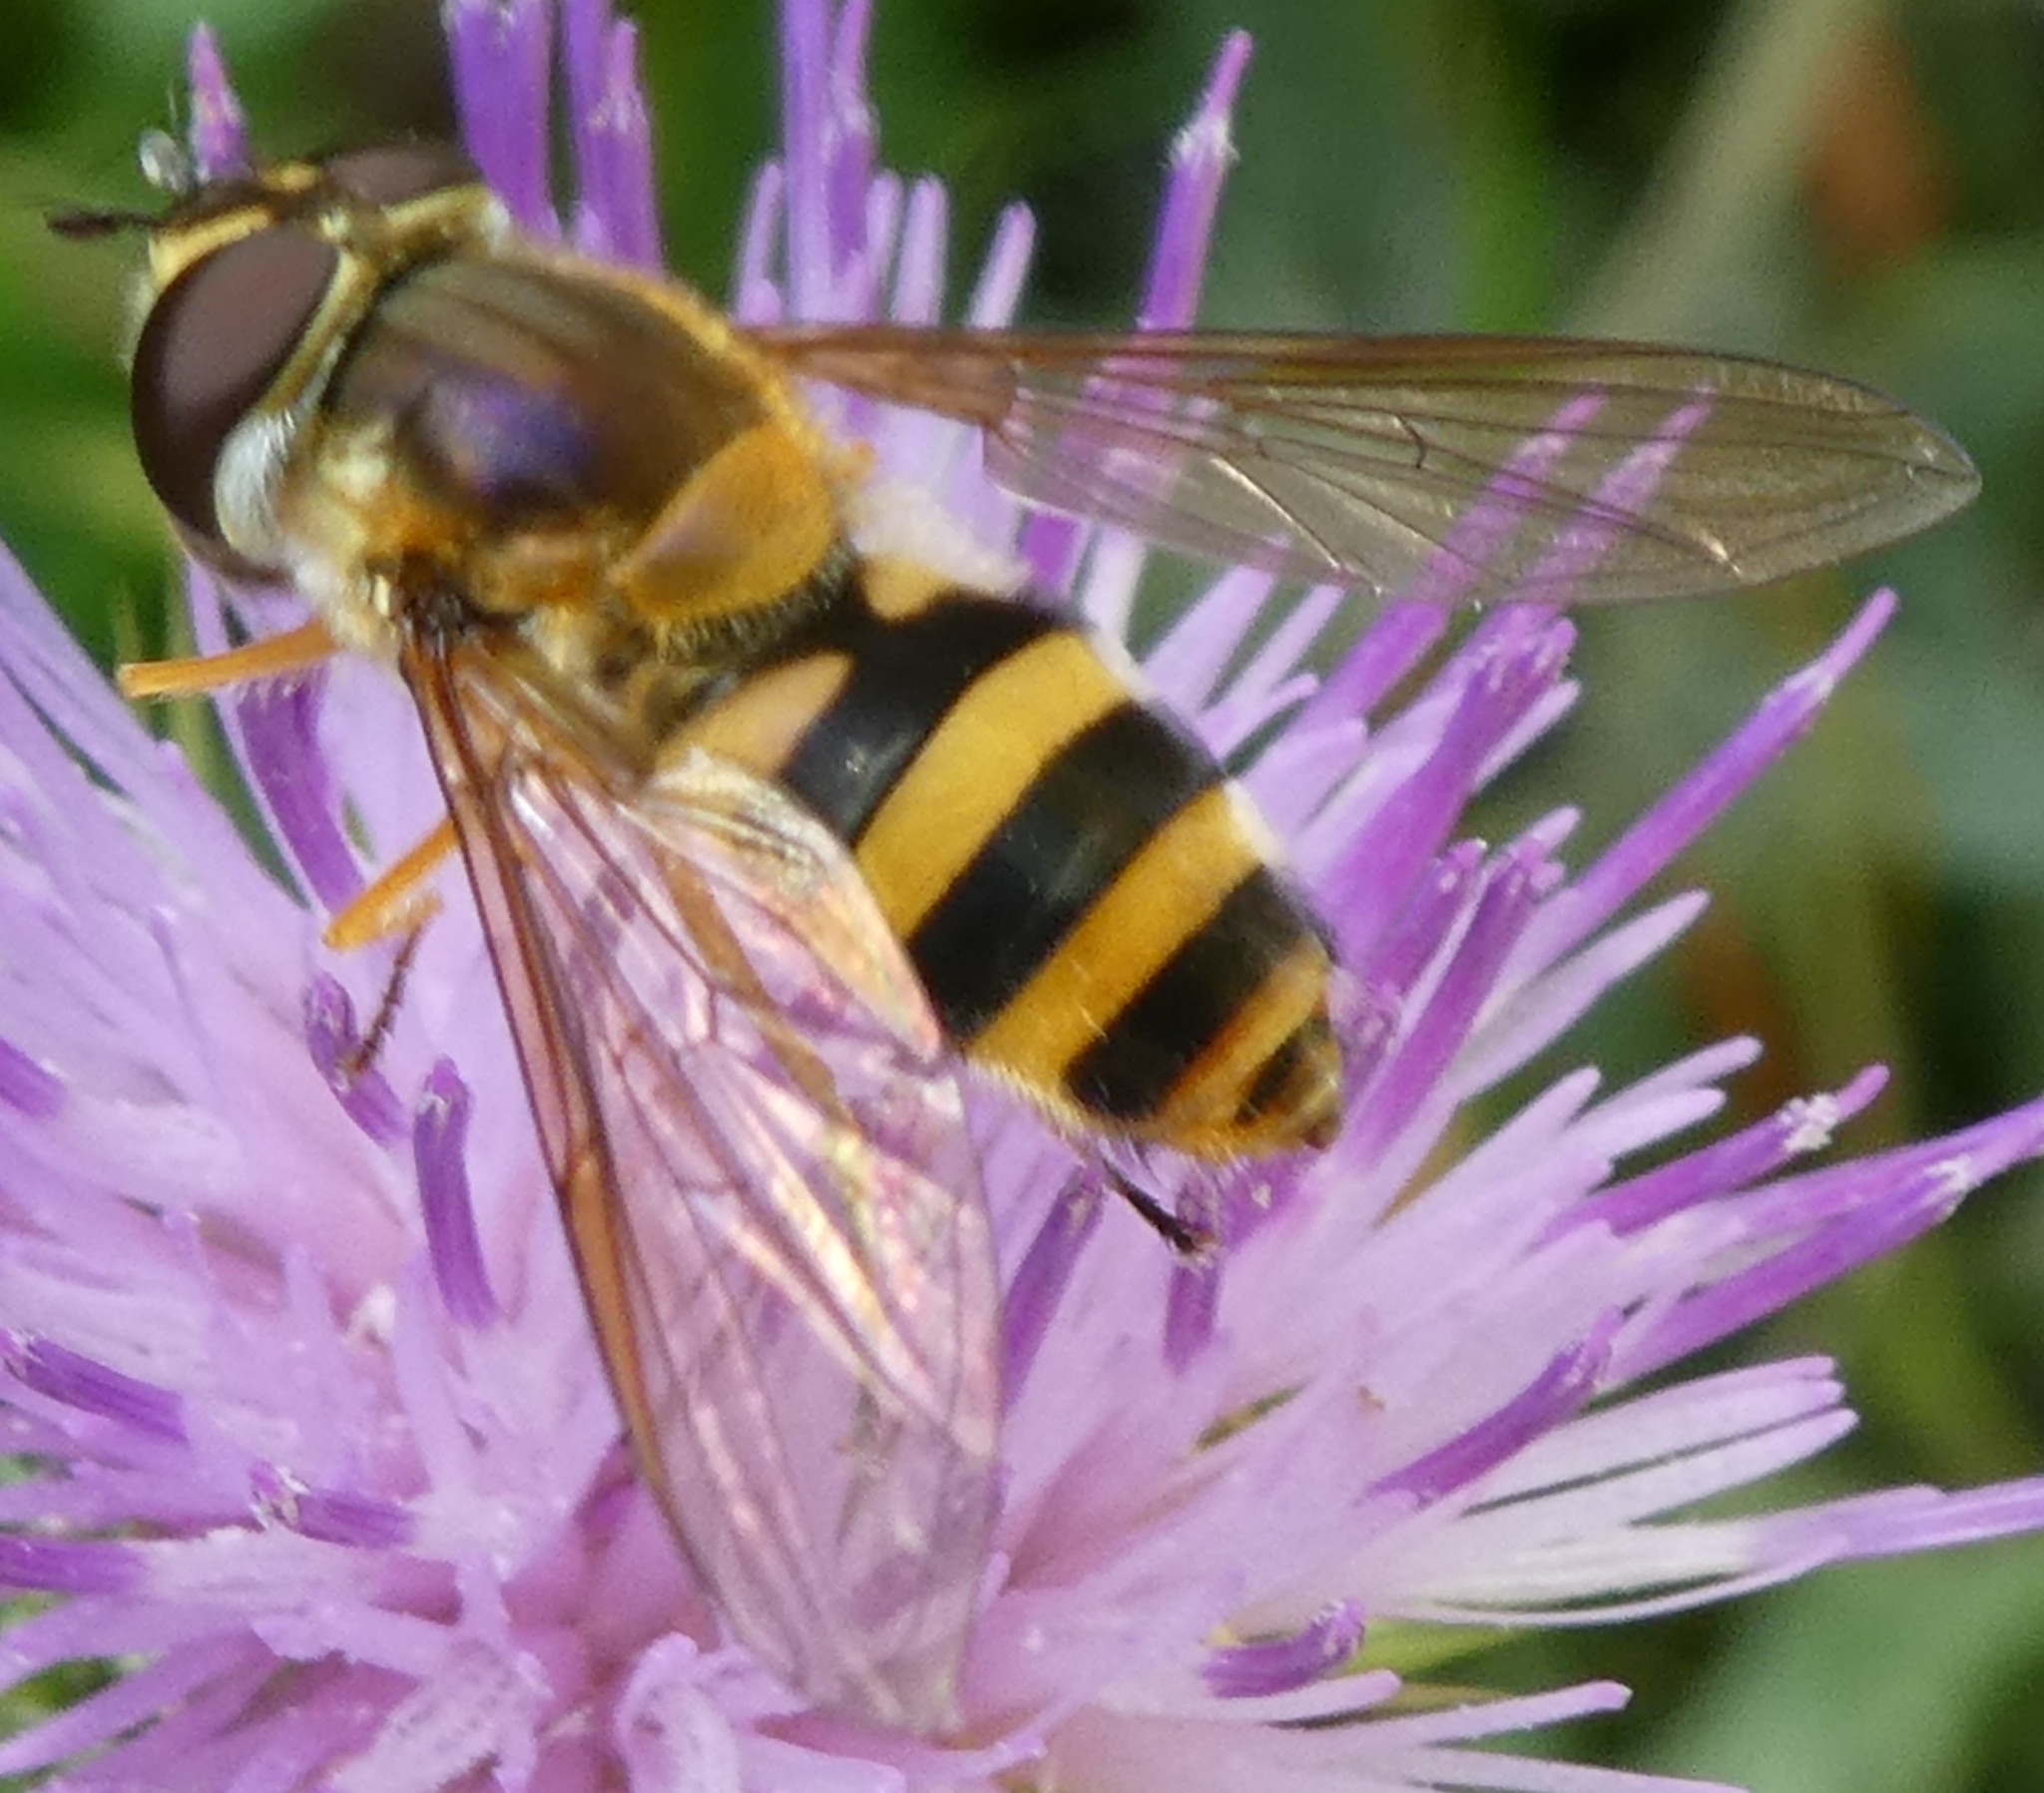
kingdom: Animalia
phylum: Arthropoda
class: Insecta
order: Diptera
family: Syrphidae
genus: Epistrophe
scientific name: Epistrophe grossulariae
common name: Black-horned smoothtail
